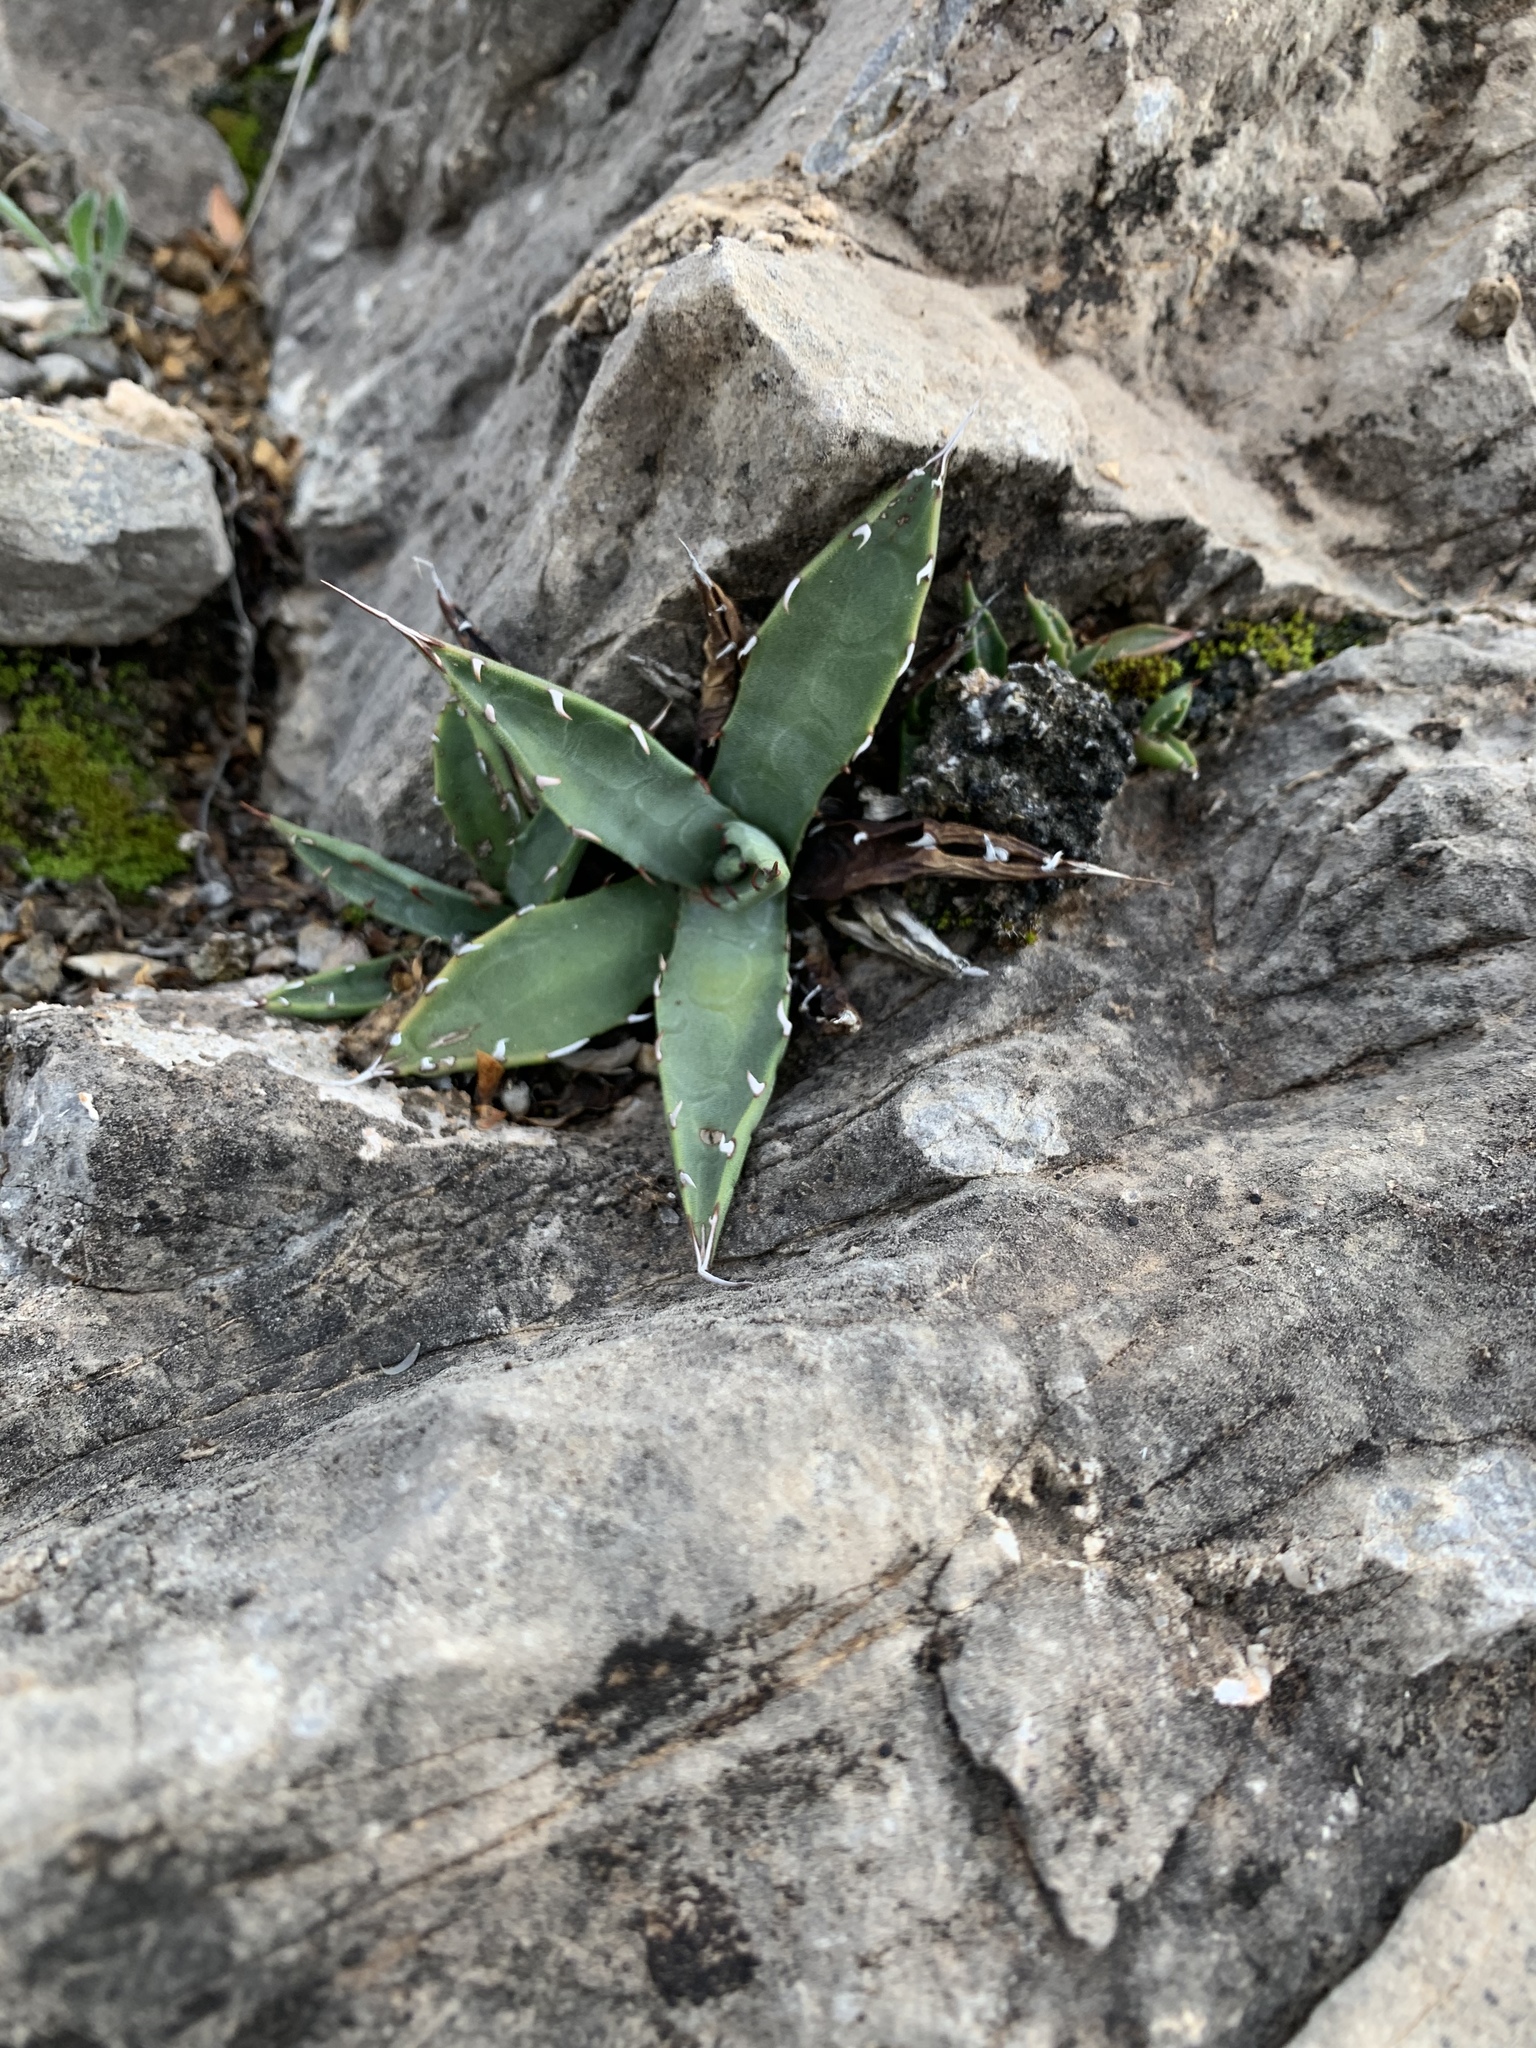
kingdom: Plantae
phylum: Tracheophyta
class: Liliopsida
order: Asparagales
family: Asparagaceae
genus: Agave
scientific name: Agave parryi
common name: Parry's agave
